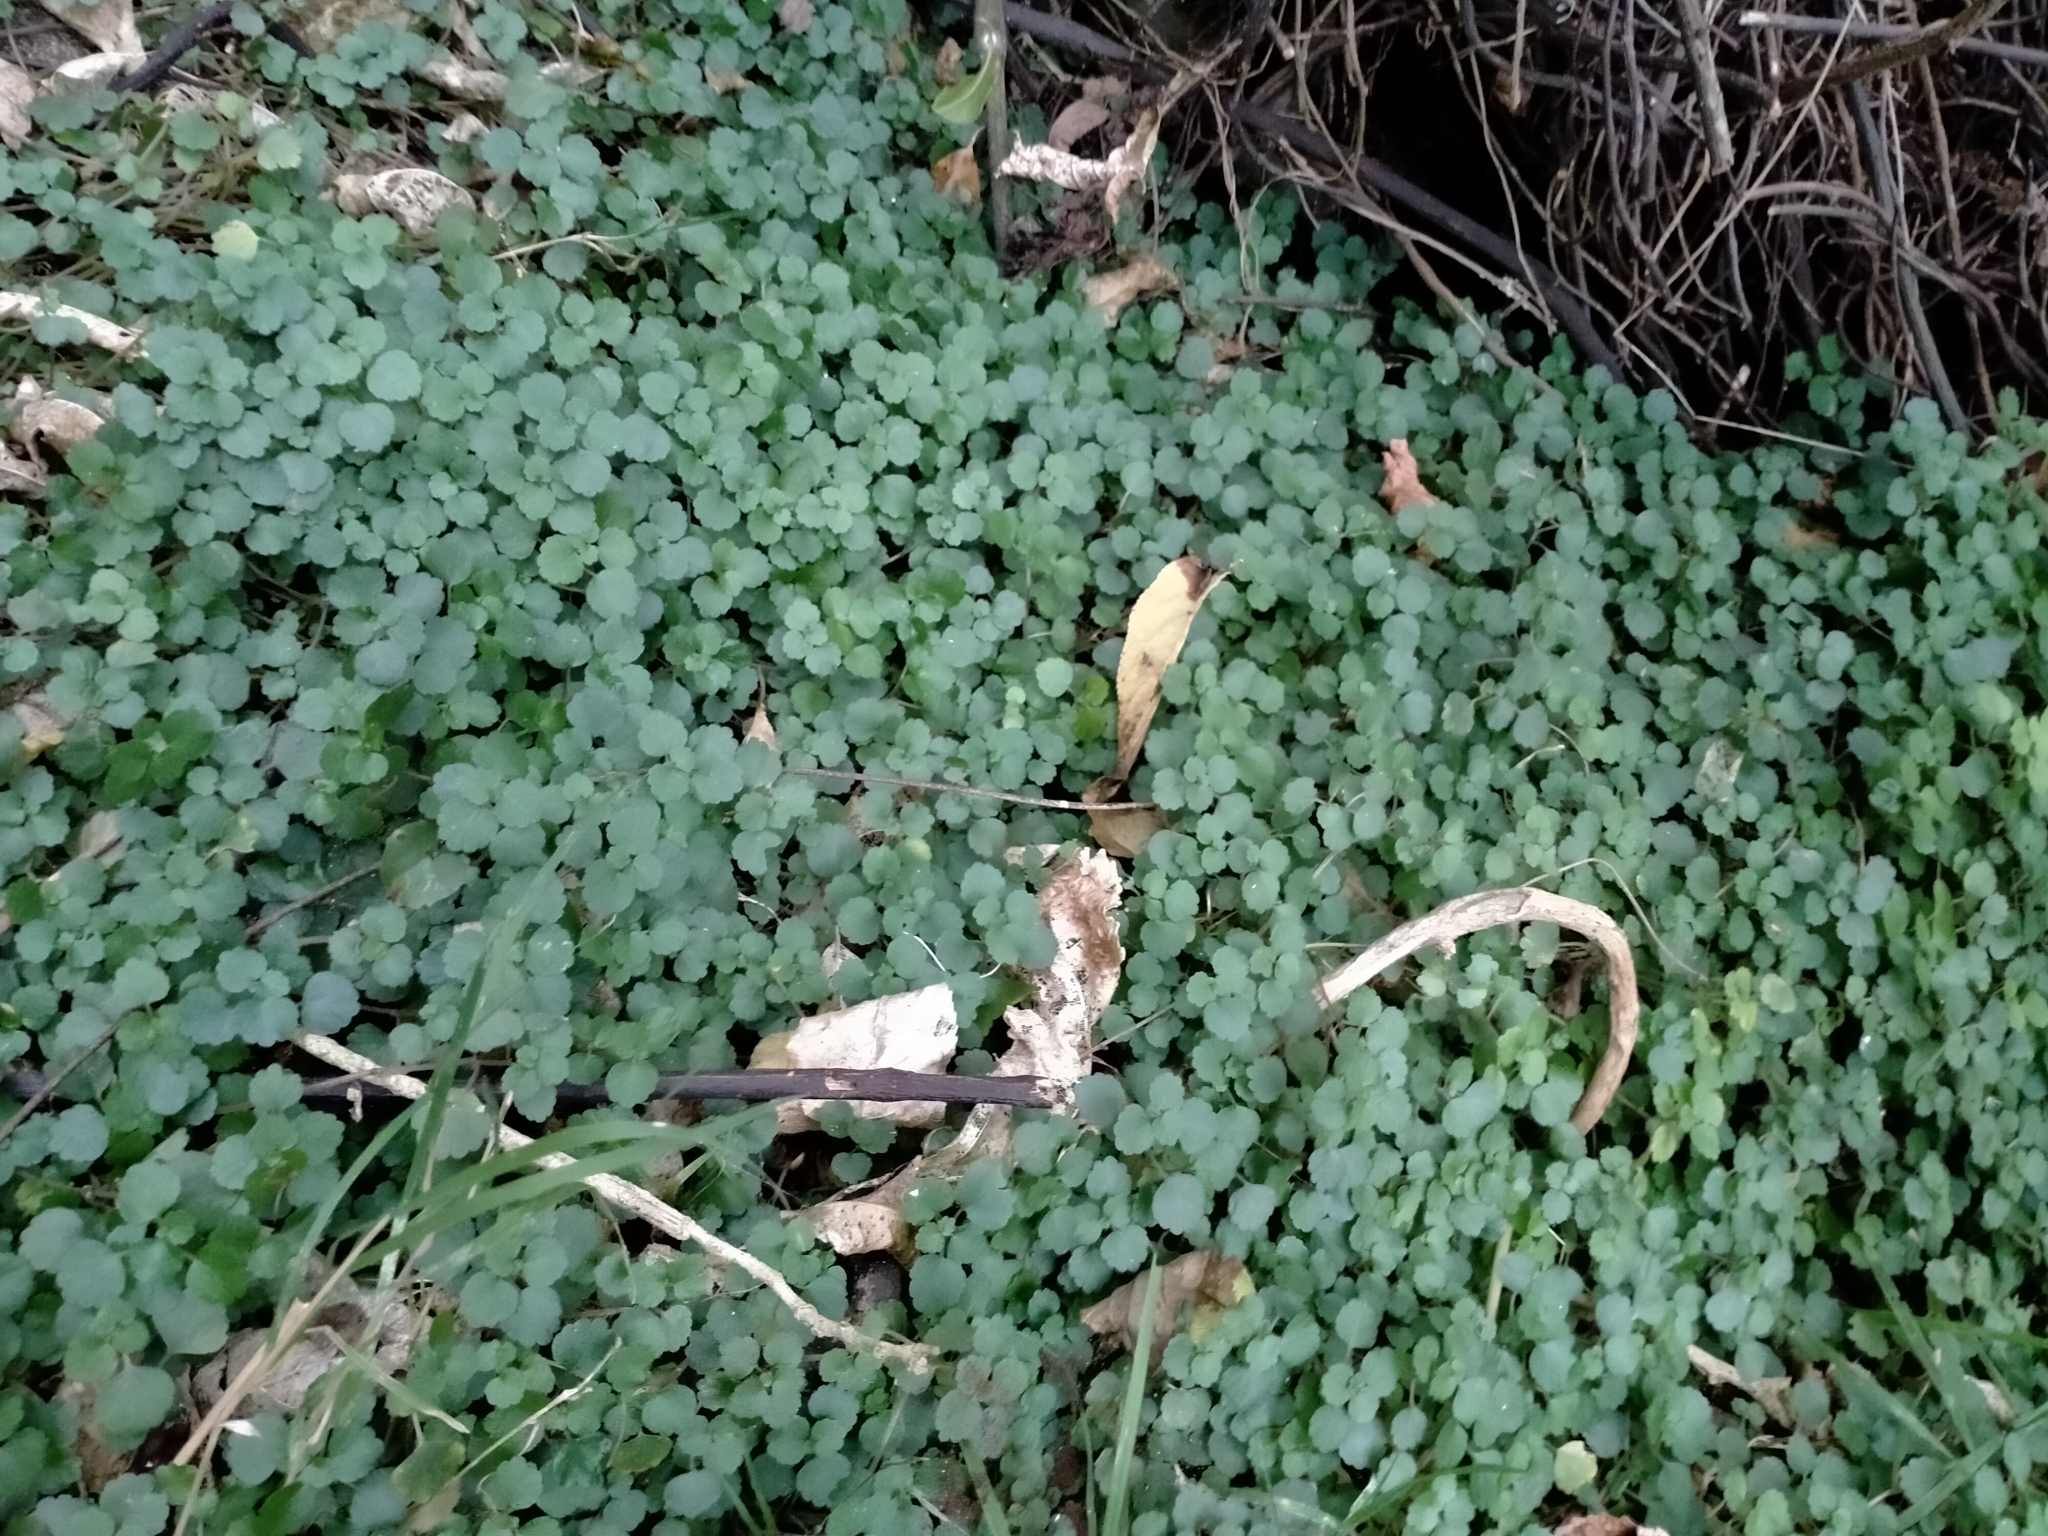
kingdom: Plantae
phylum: Tracheophyta
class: Magnoliopsida
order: Rosales
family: Urticaceae
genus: Australina
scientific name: Australina pusilla
